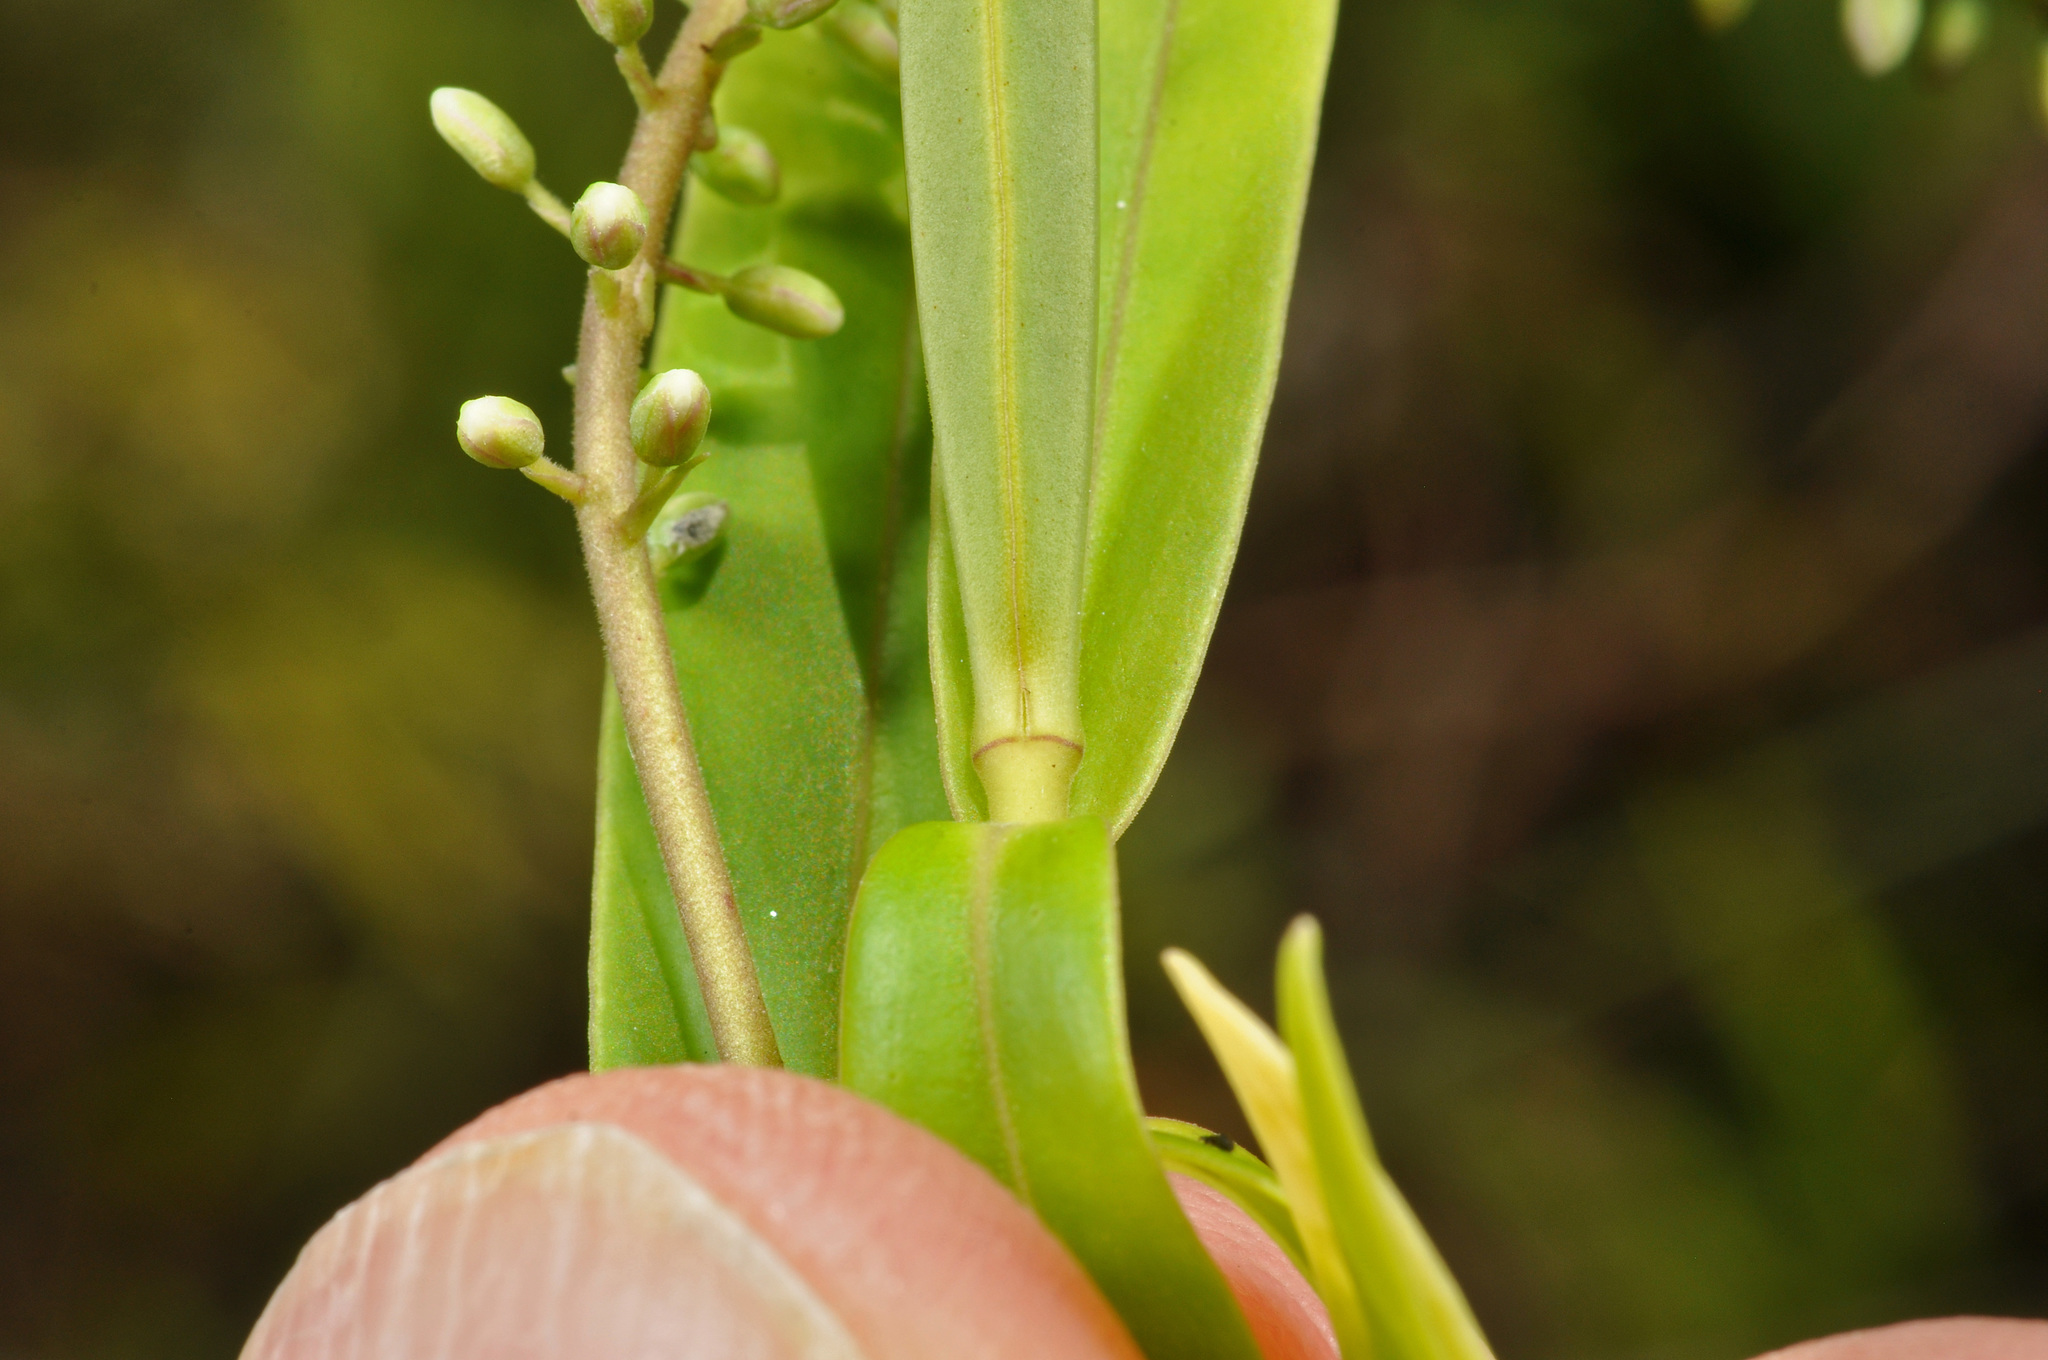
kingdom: Plantae
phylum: Tracheophyta
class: Magnoliopsida
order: Lamiales
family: Plantaginaceae
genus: Veronica
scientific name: Veronica stricta
